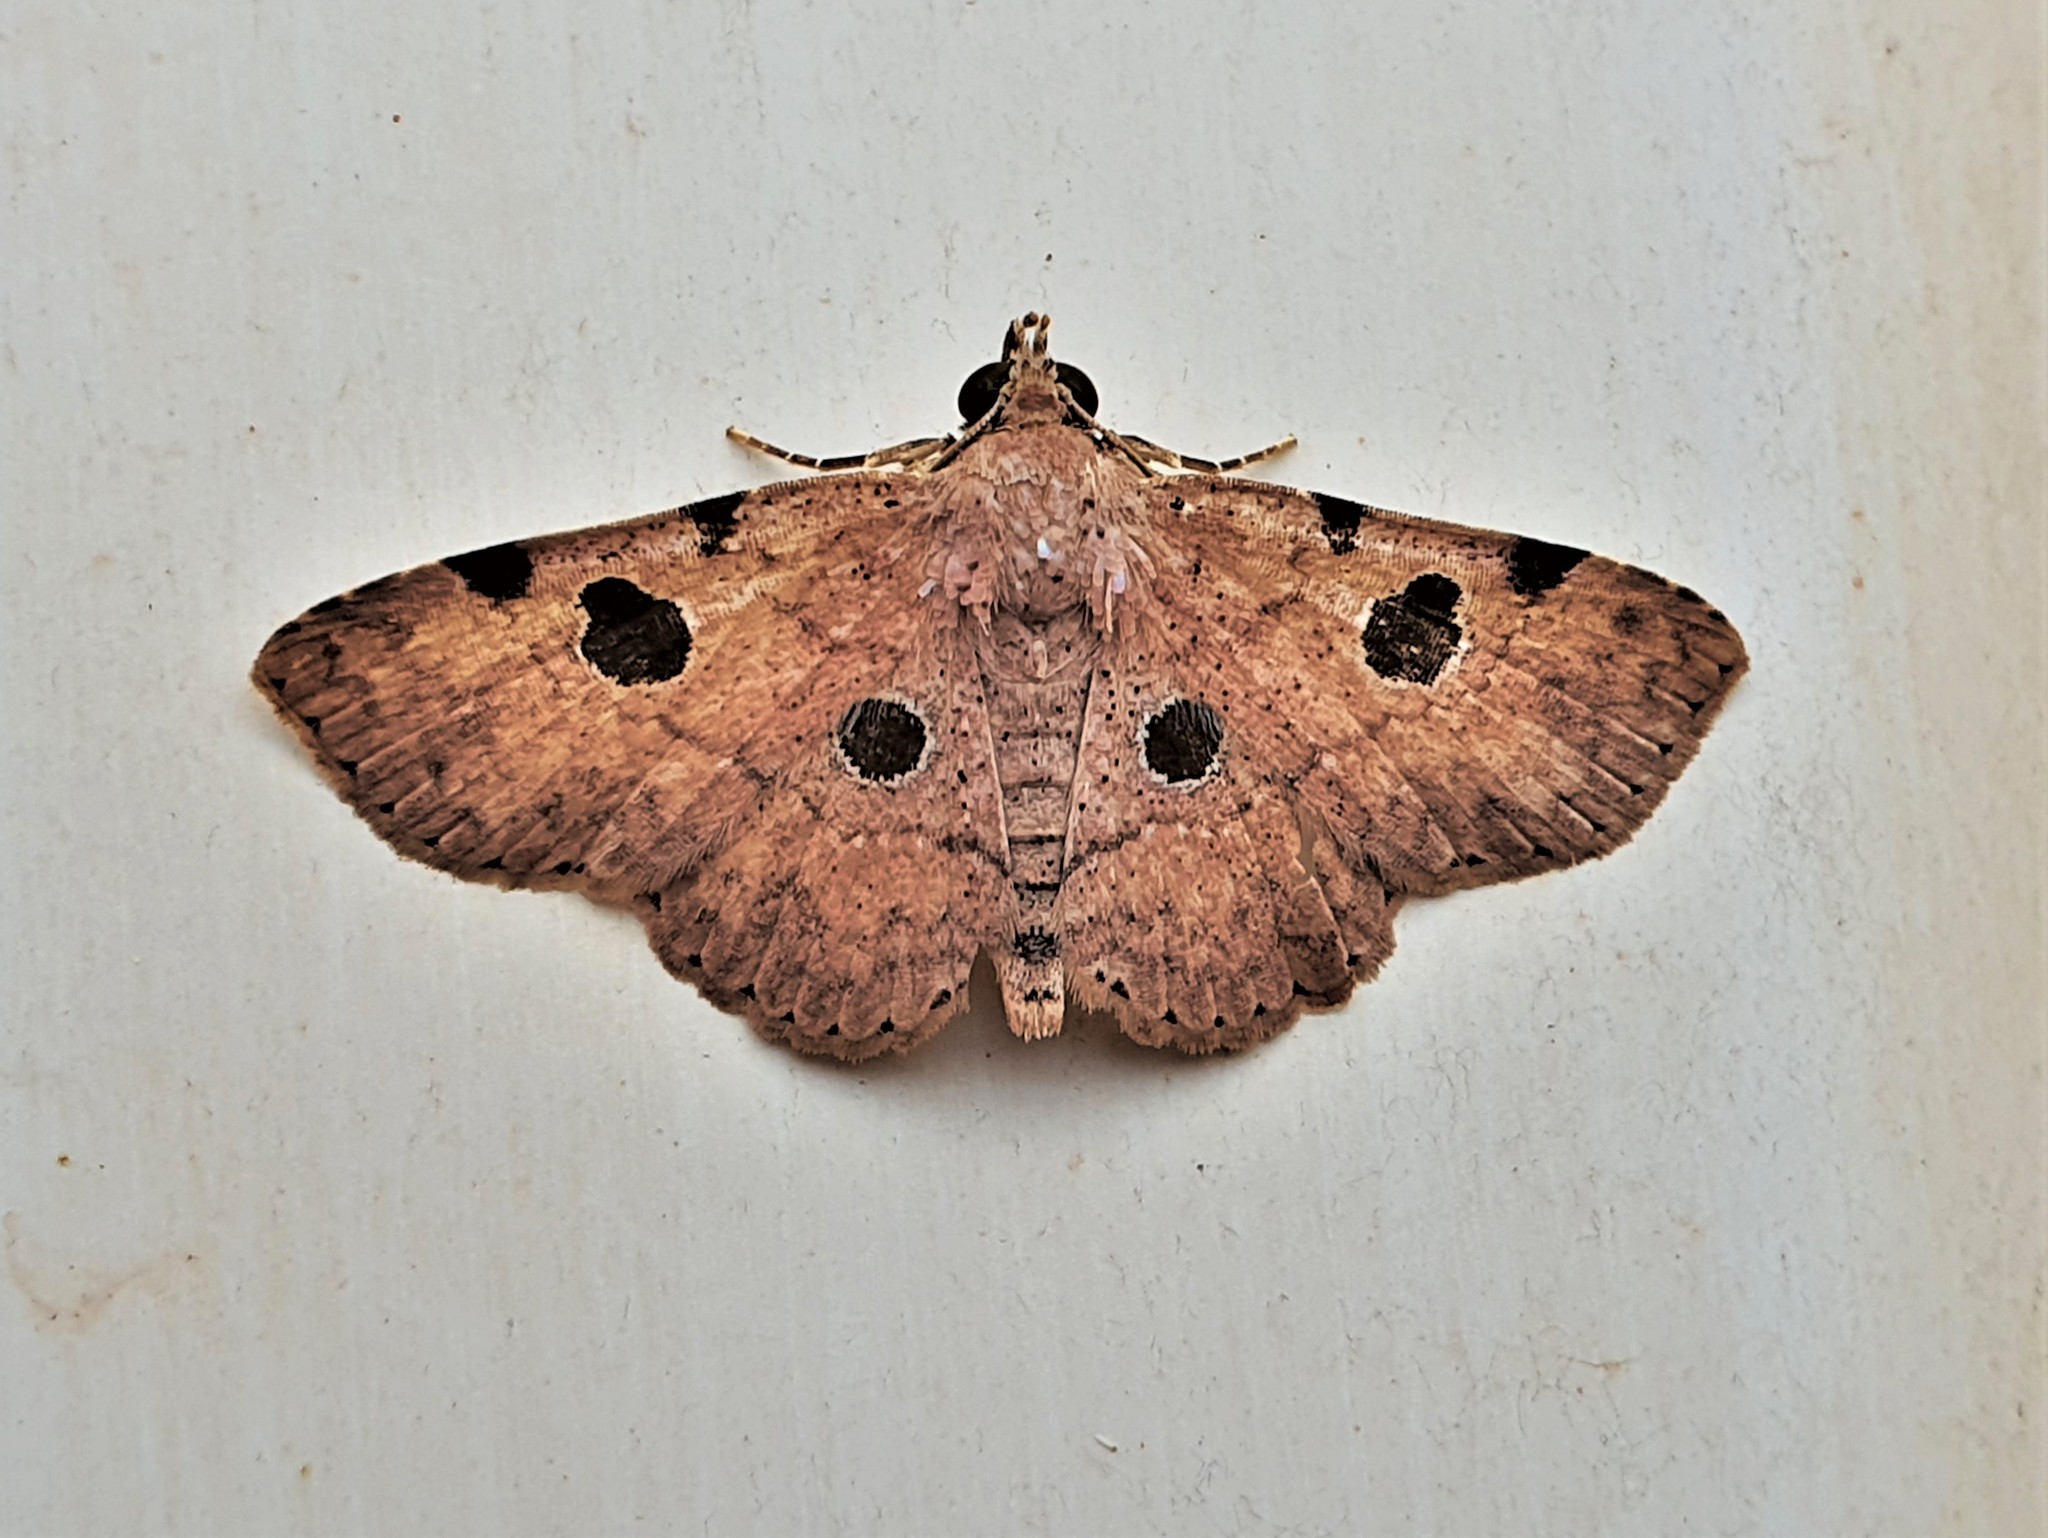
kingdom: Animalia
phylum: Arthropoda
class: Insecta
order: Lepidoptera
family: Erebidae
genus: Antiblemma
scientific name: Antiblemma discomaculata
